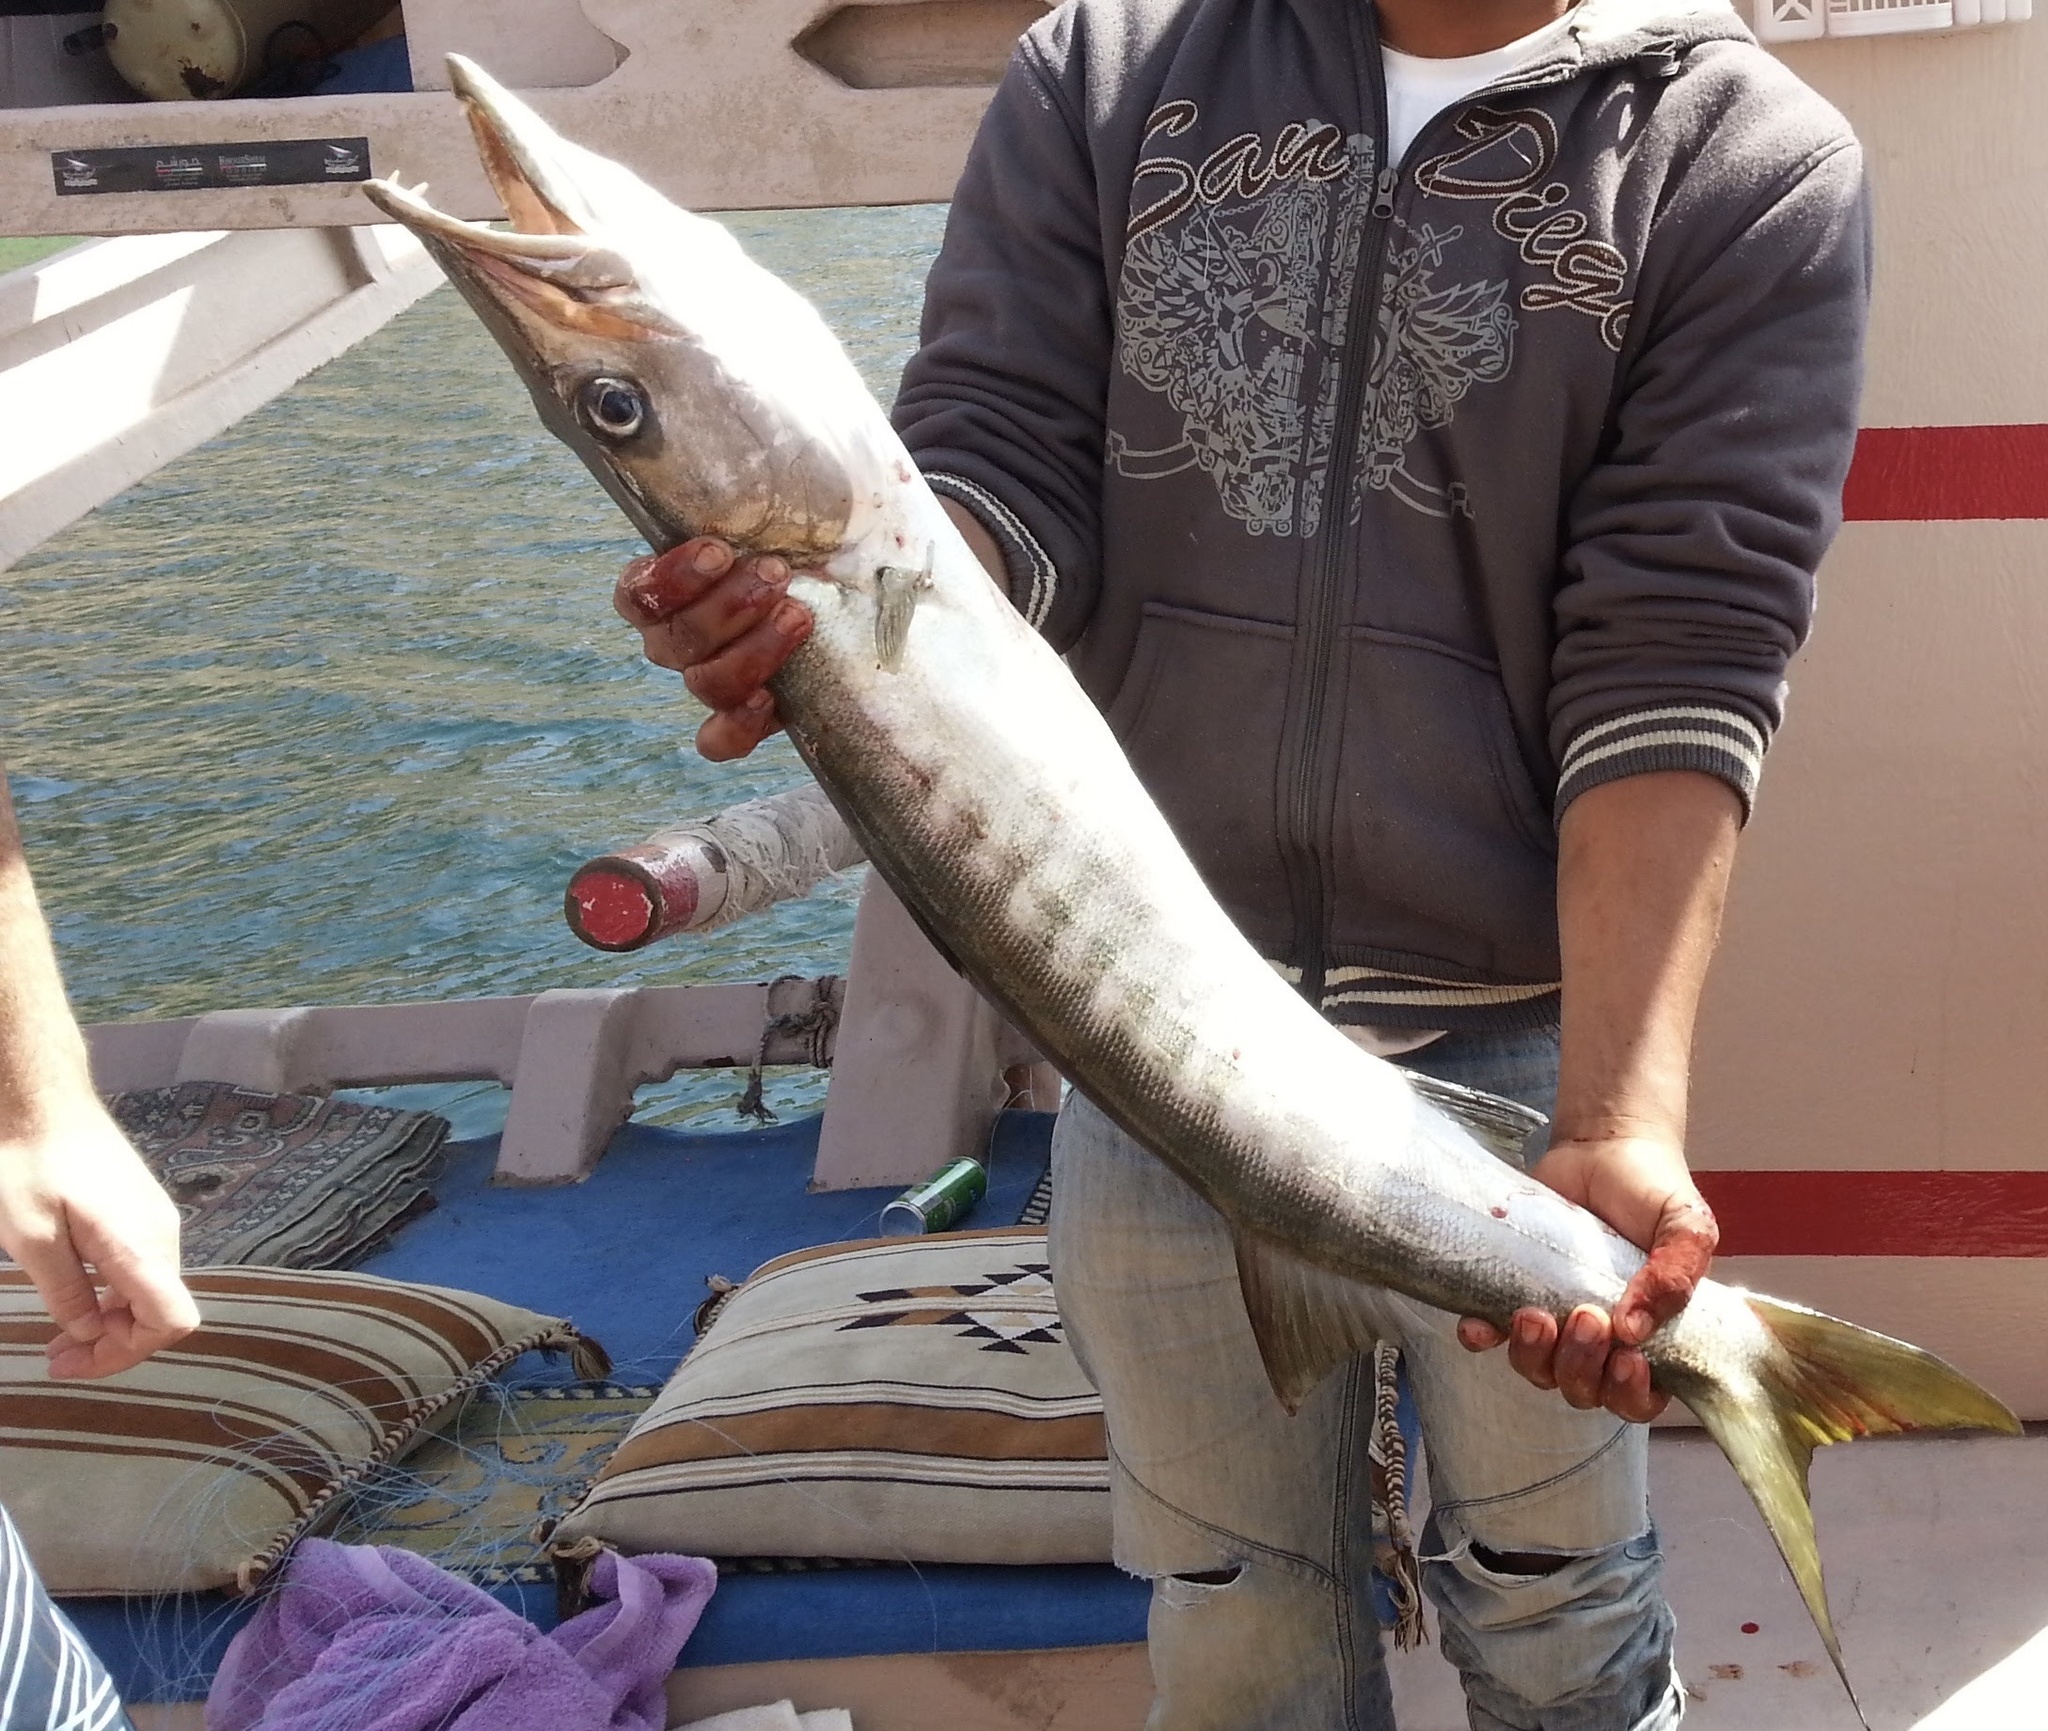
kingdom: Animalia
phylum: Chordata
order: Perciformes
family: Sphyraenidae
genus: Sphyraena
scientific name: Sphyraena jello
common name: Pickhandle barracuda
